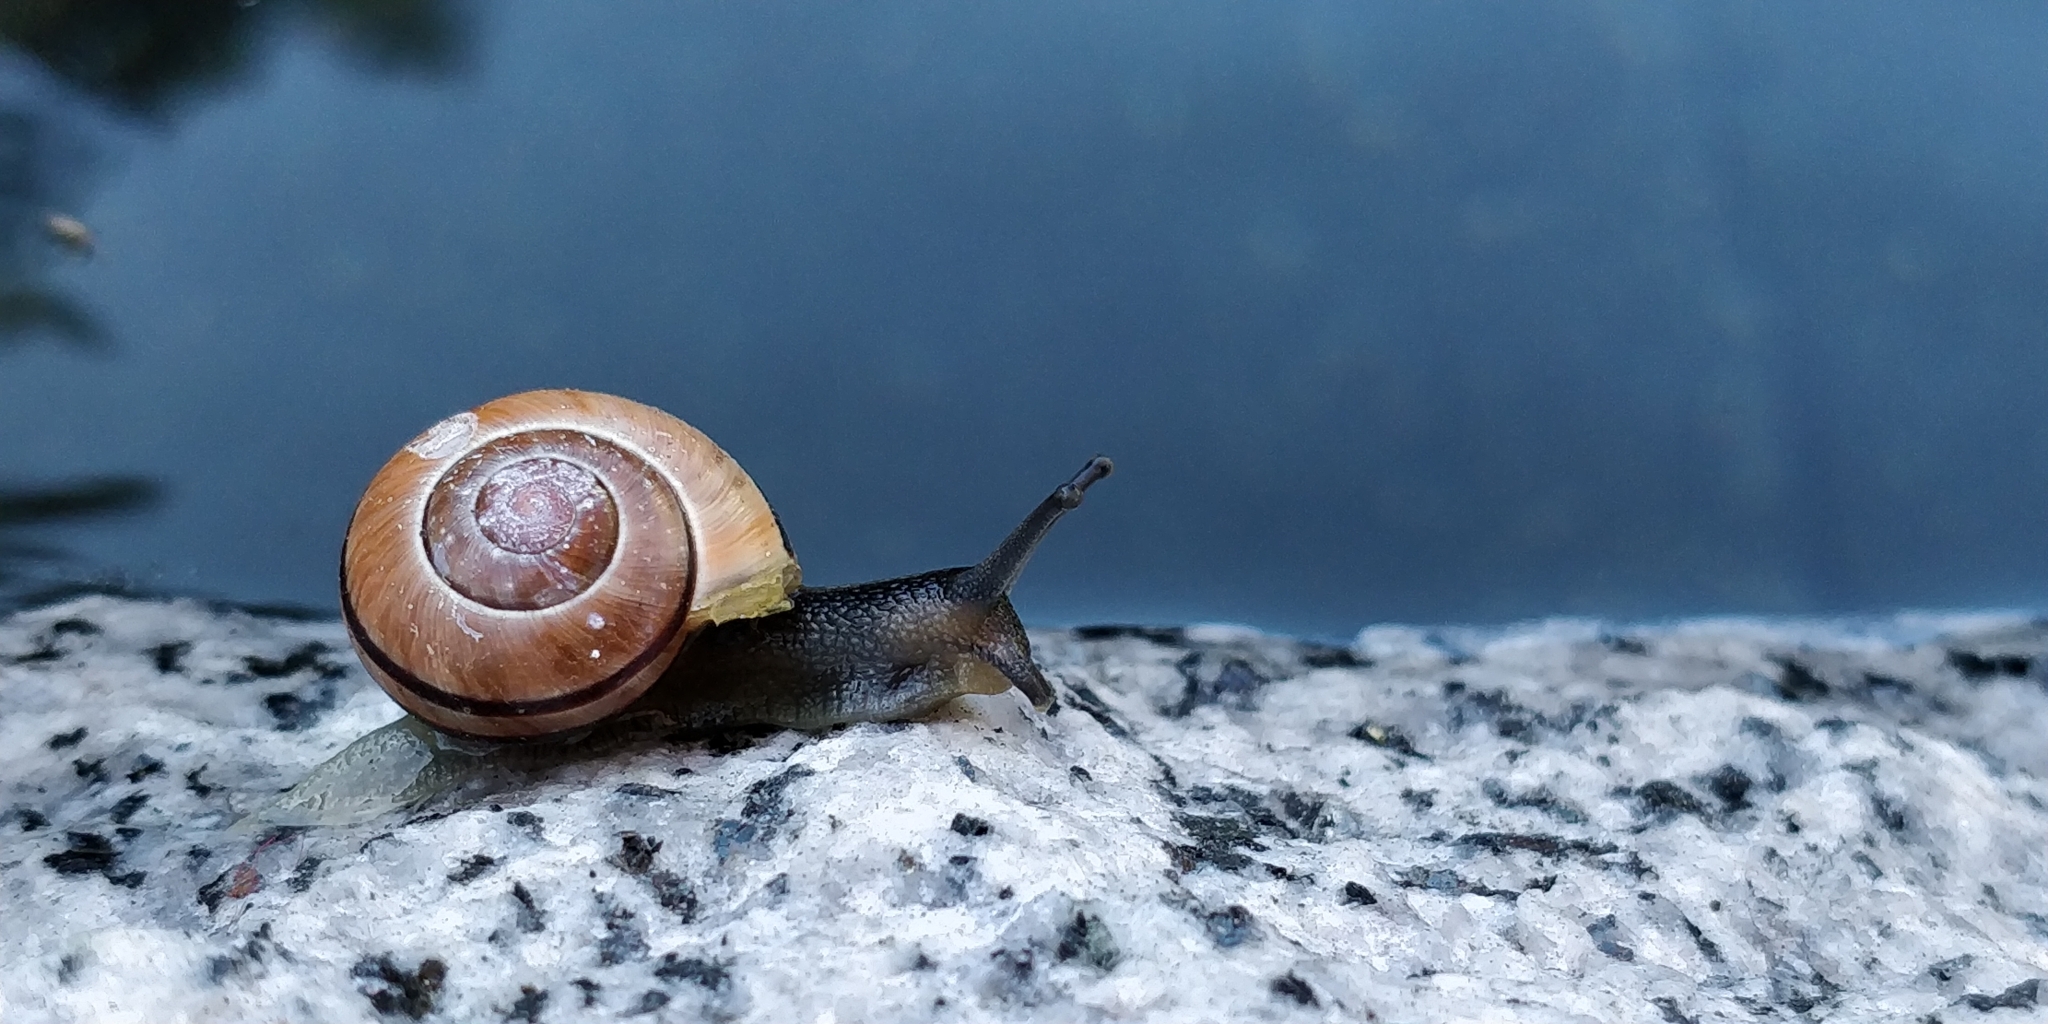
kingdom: Animalia
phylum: Mollusca
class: Gastropoda
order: Stylommatophora
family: Helicidae
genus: Cepaea
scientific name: Cepaea nemoralis
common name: Grovesnail
